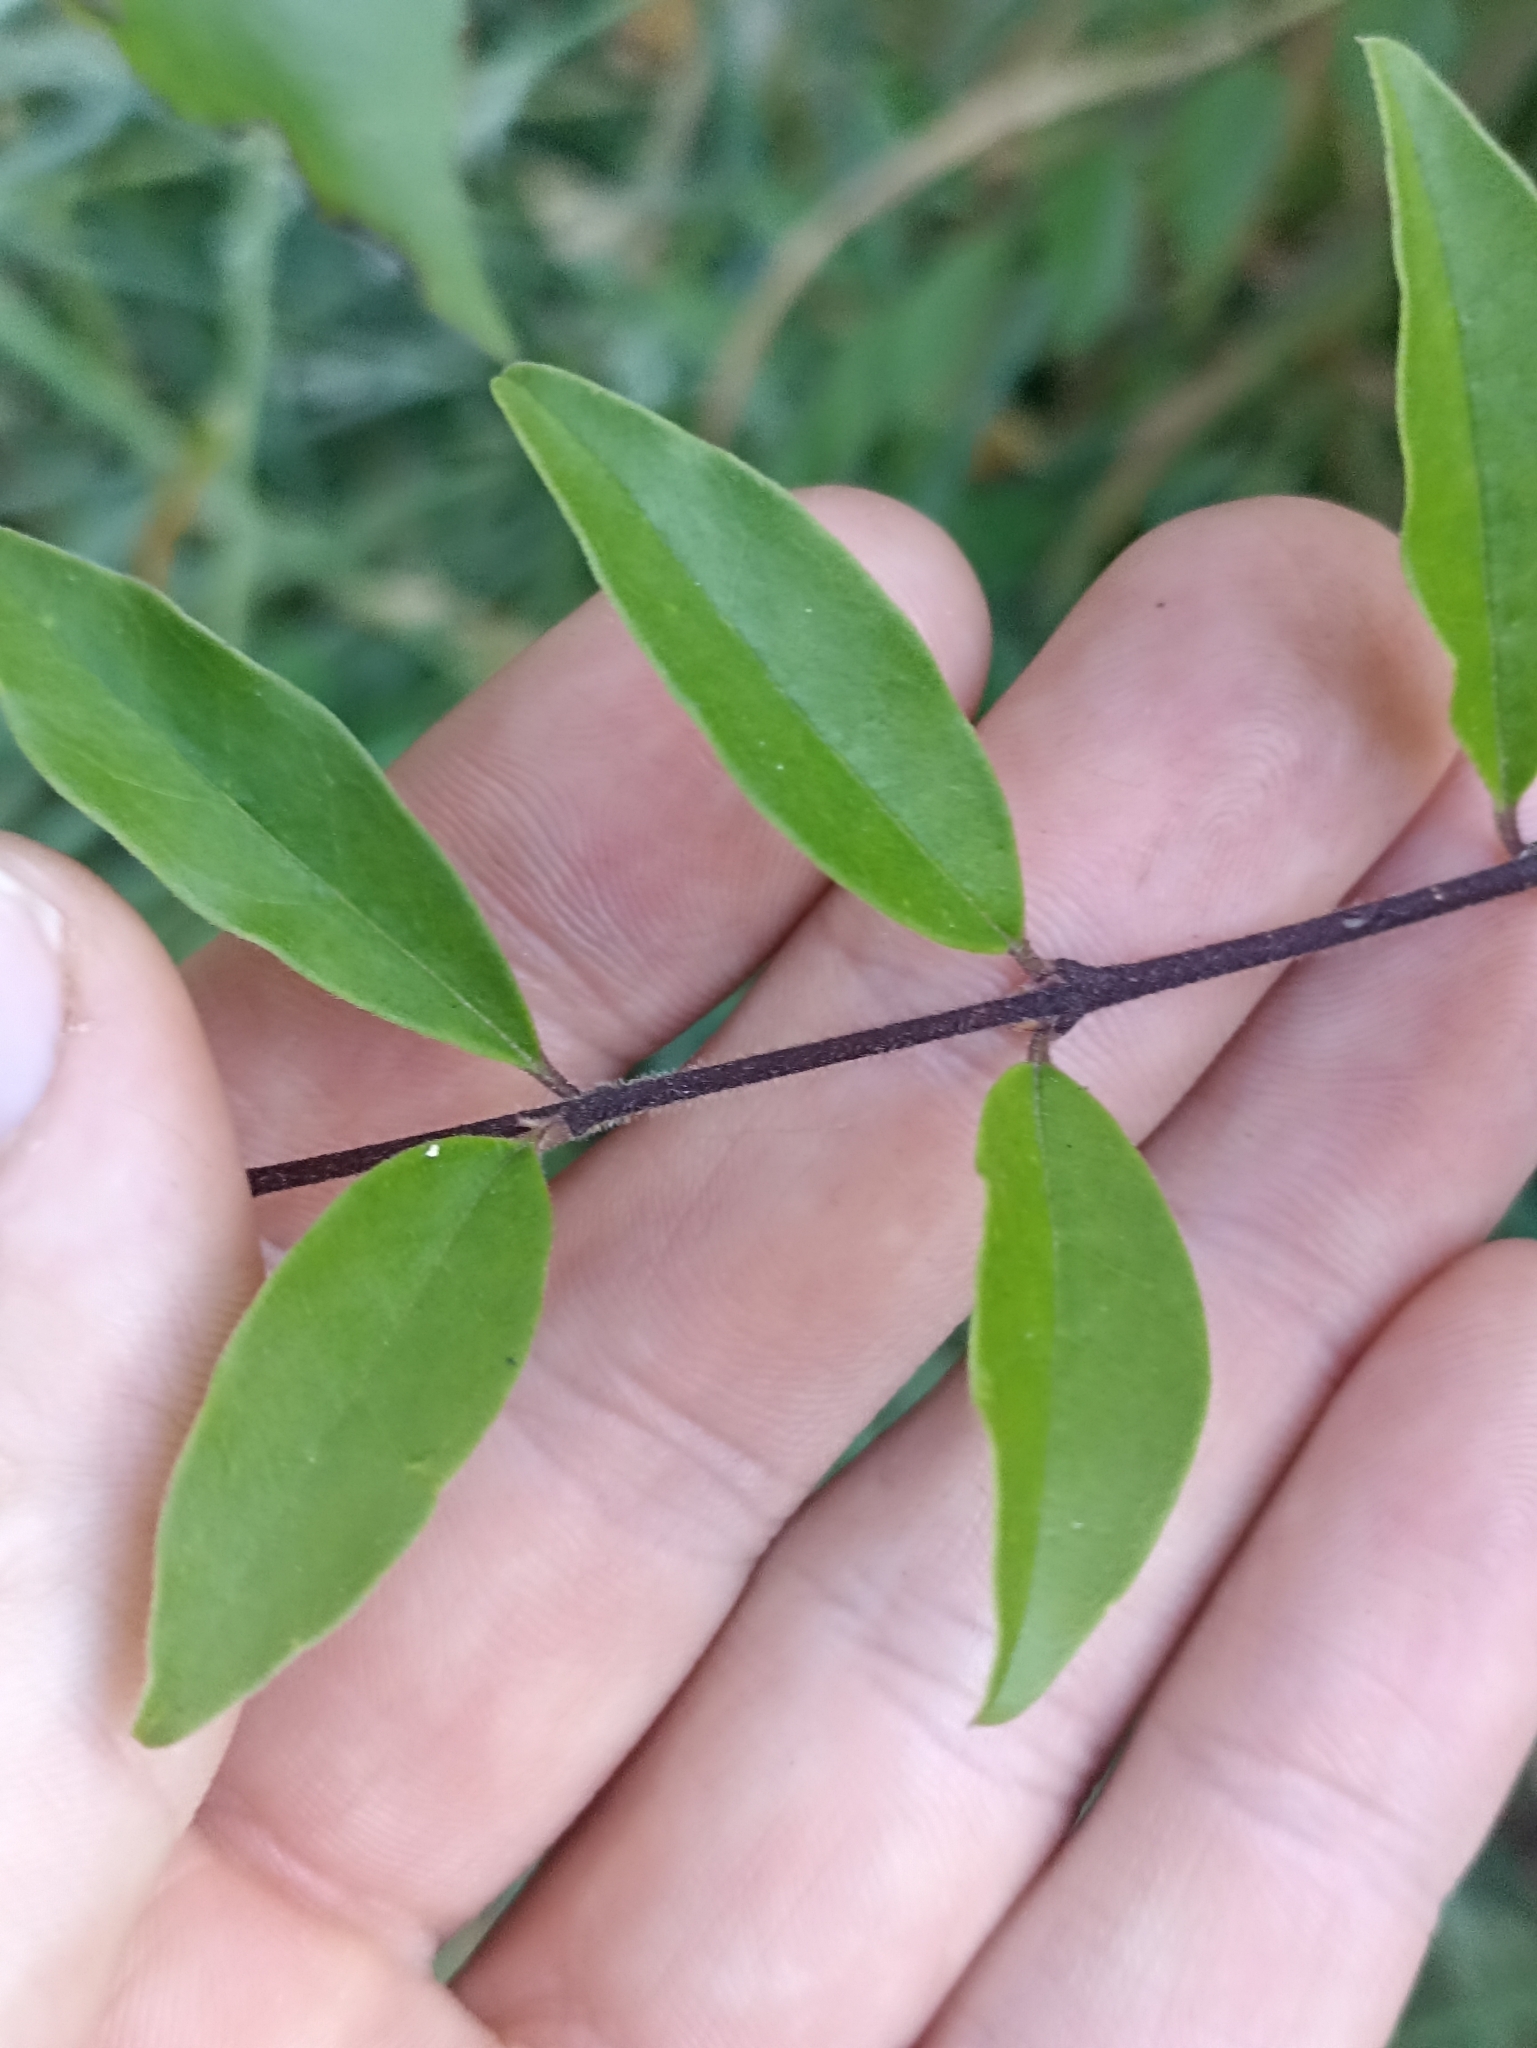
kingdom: Plantae
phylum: Tracheophyta
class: Magnoliopsida
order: Lamiales
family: Oleaceae
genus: Ligustrum
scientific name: Ligustrum sinense
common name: Chinese privet
